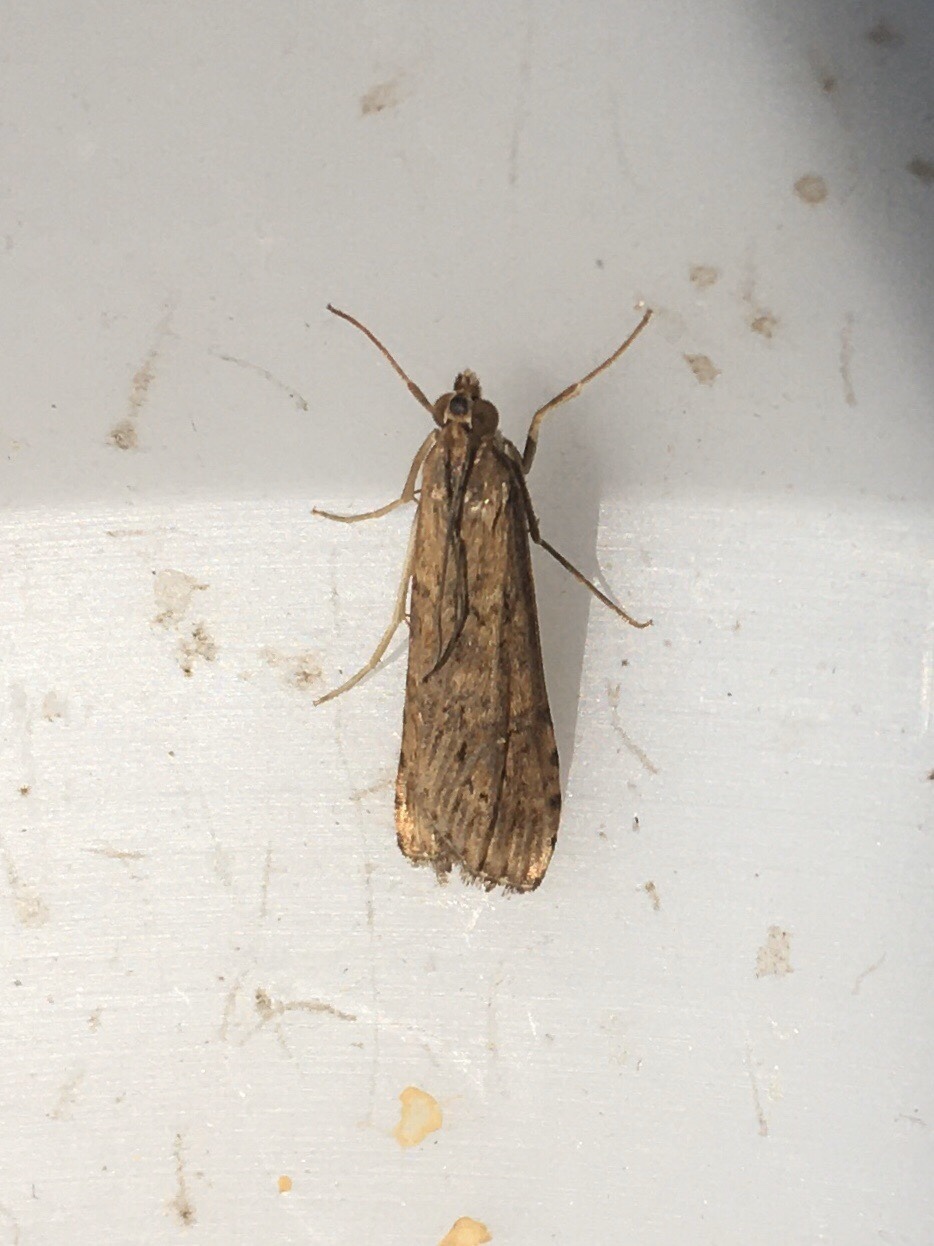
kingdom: Animalia
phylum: Arthropoda
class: Insecta
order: Lepidoptera
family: Crambidae
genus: Nomophila
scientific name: Nomophila nearctica
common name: American rush veneer
